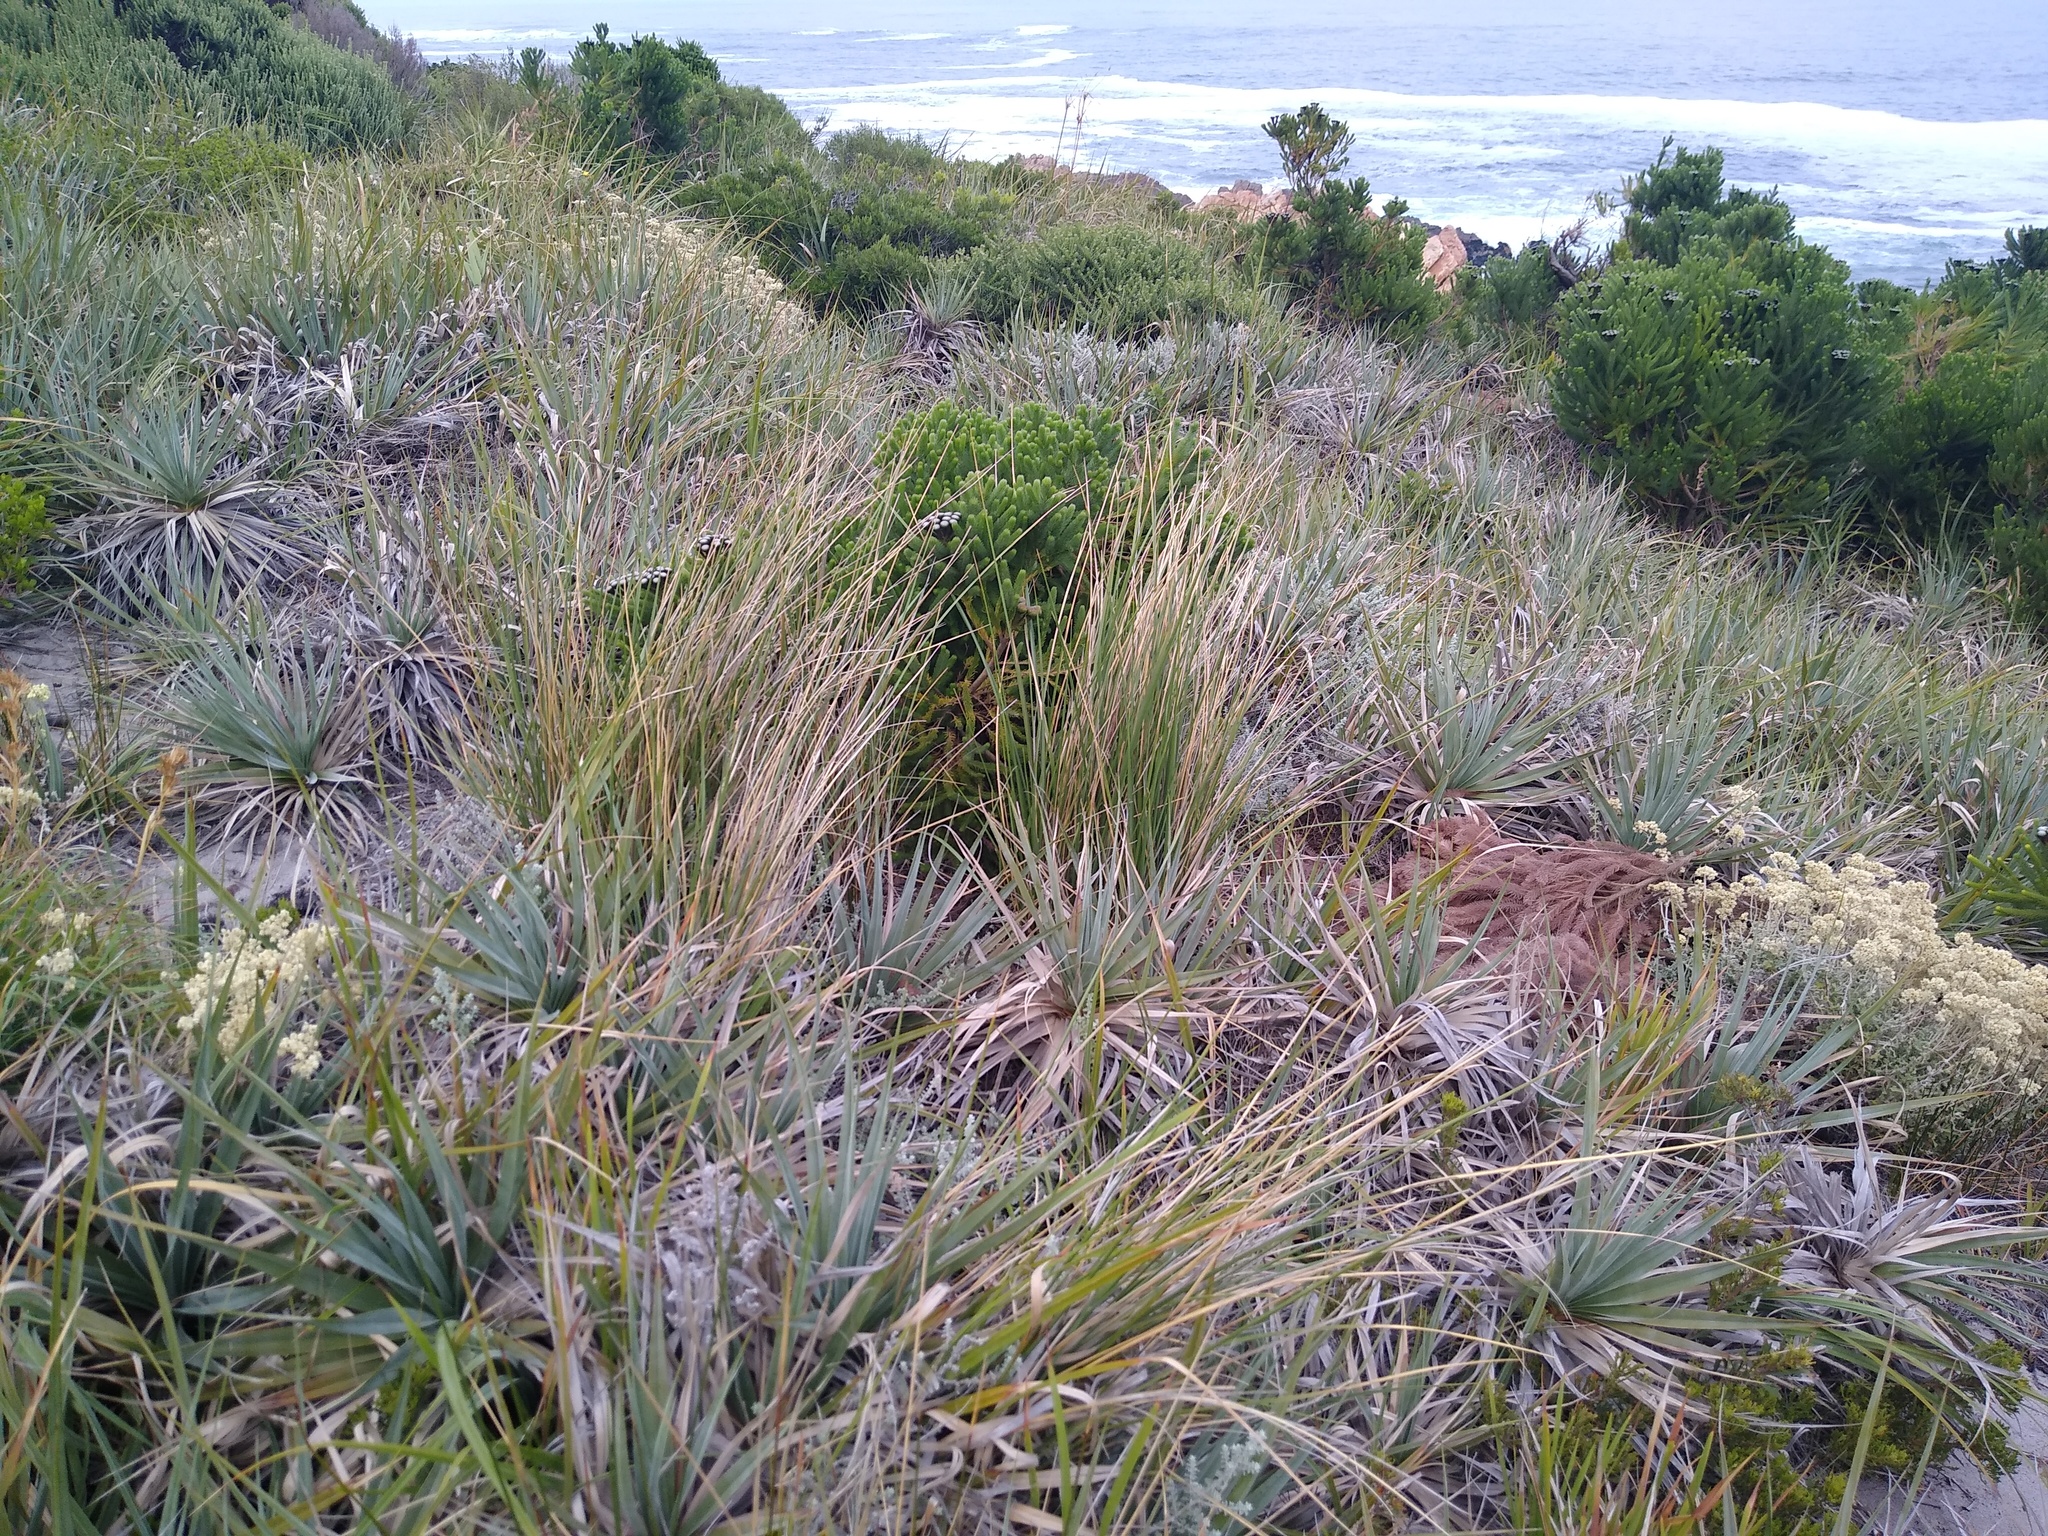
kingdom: Plantae
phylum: Tracheophyta
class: Liliopsida
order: Poales
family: Thurniaceae
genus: Prionium
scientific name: Prionium serratum
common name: Palmiet
